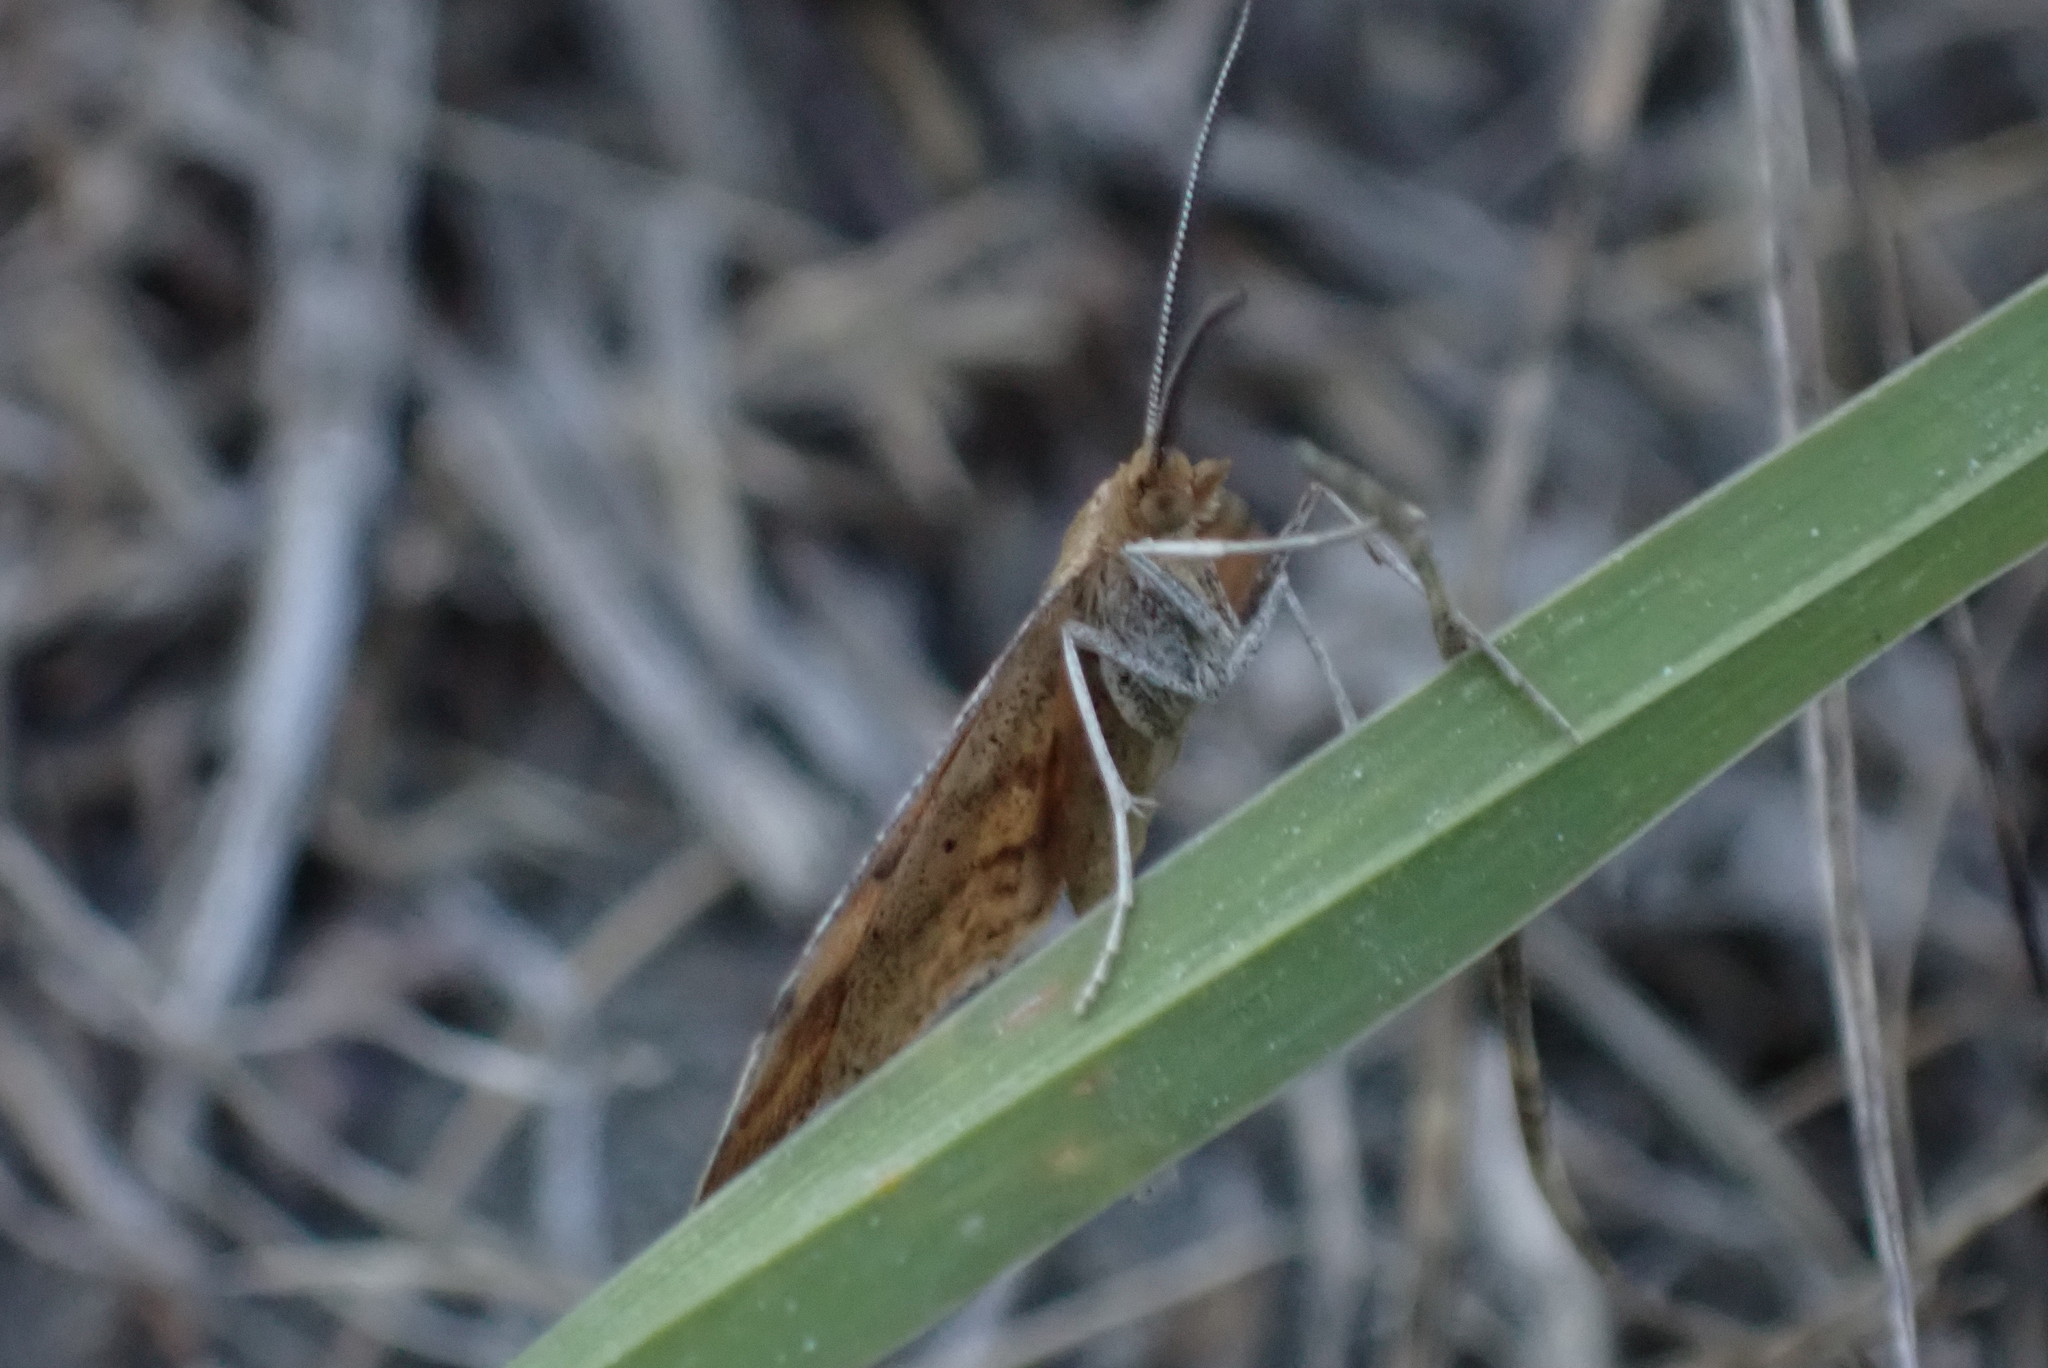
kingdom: Animalia
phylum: Arthropoda
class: Insecta
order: Lepidoptera
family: Geometridae
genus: Scopula
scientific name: Scopula rubraria
